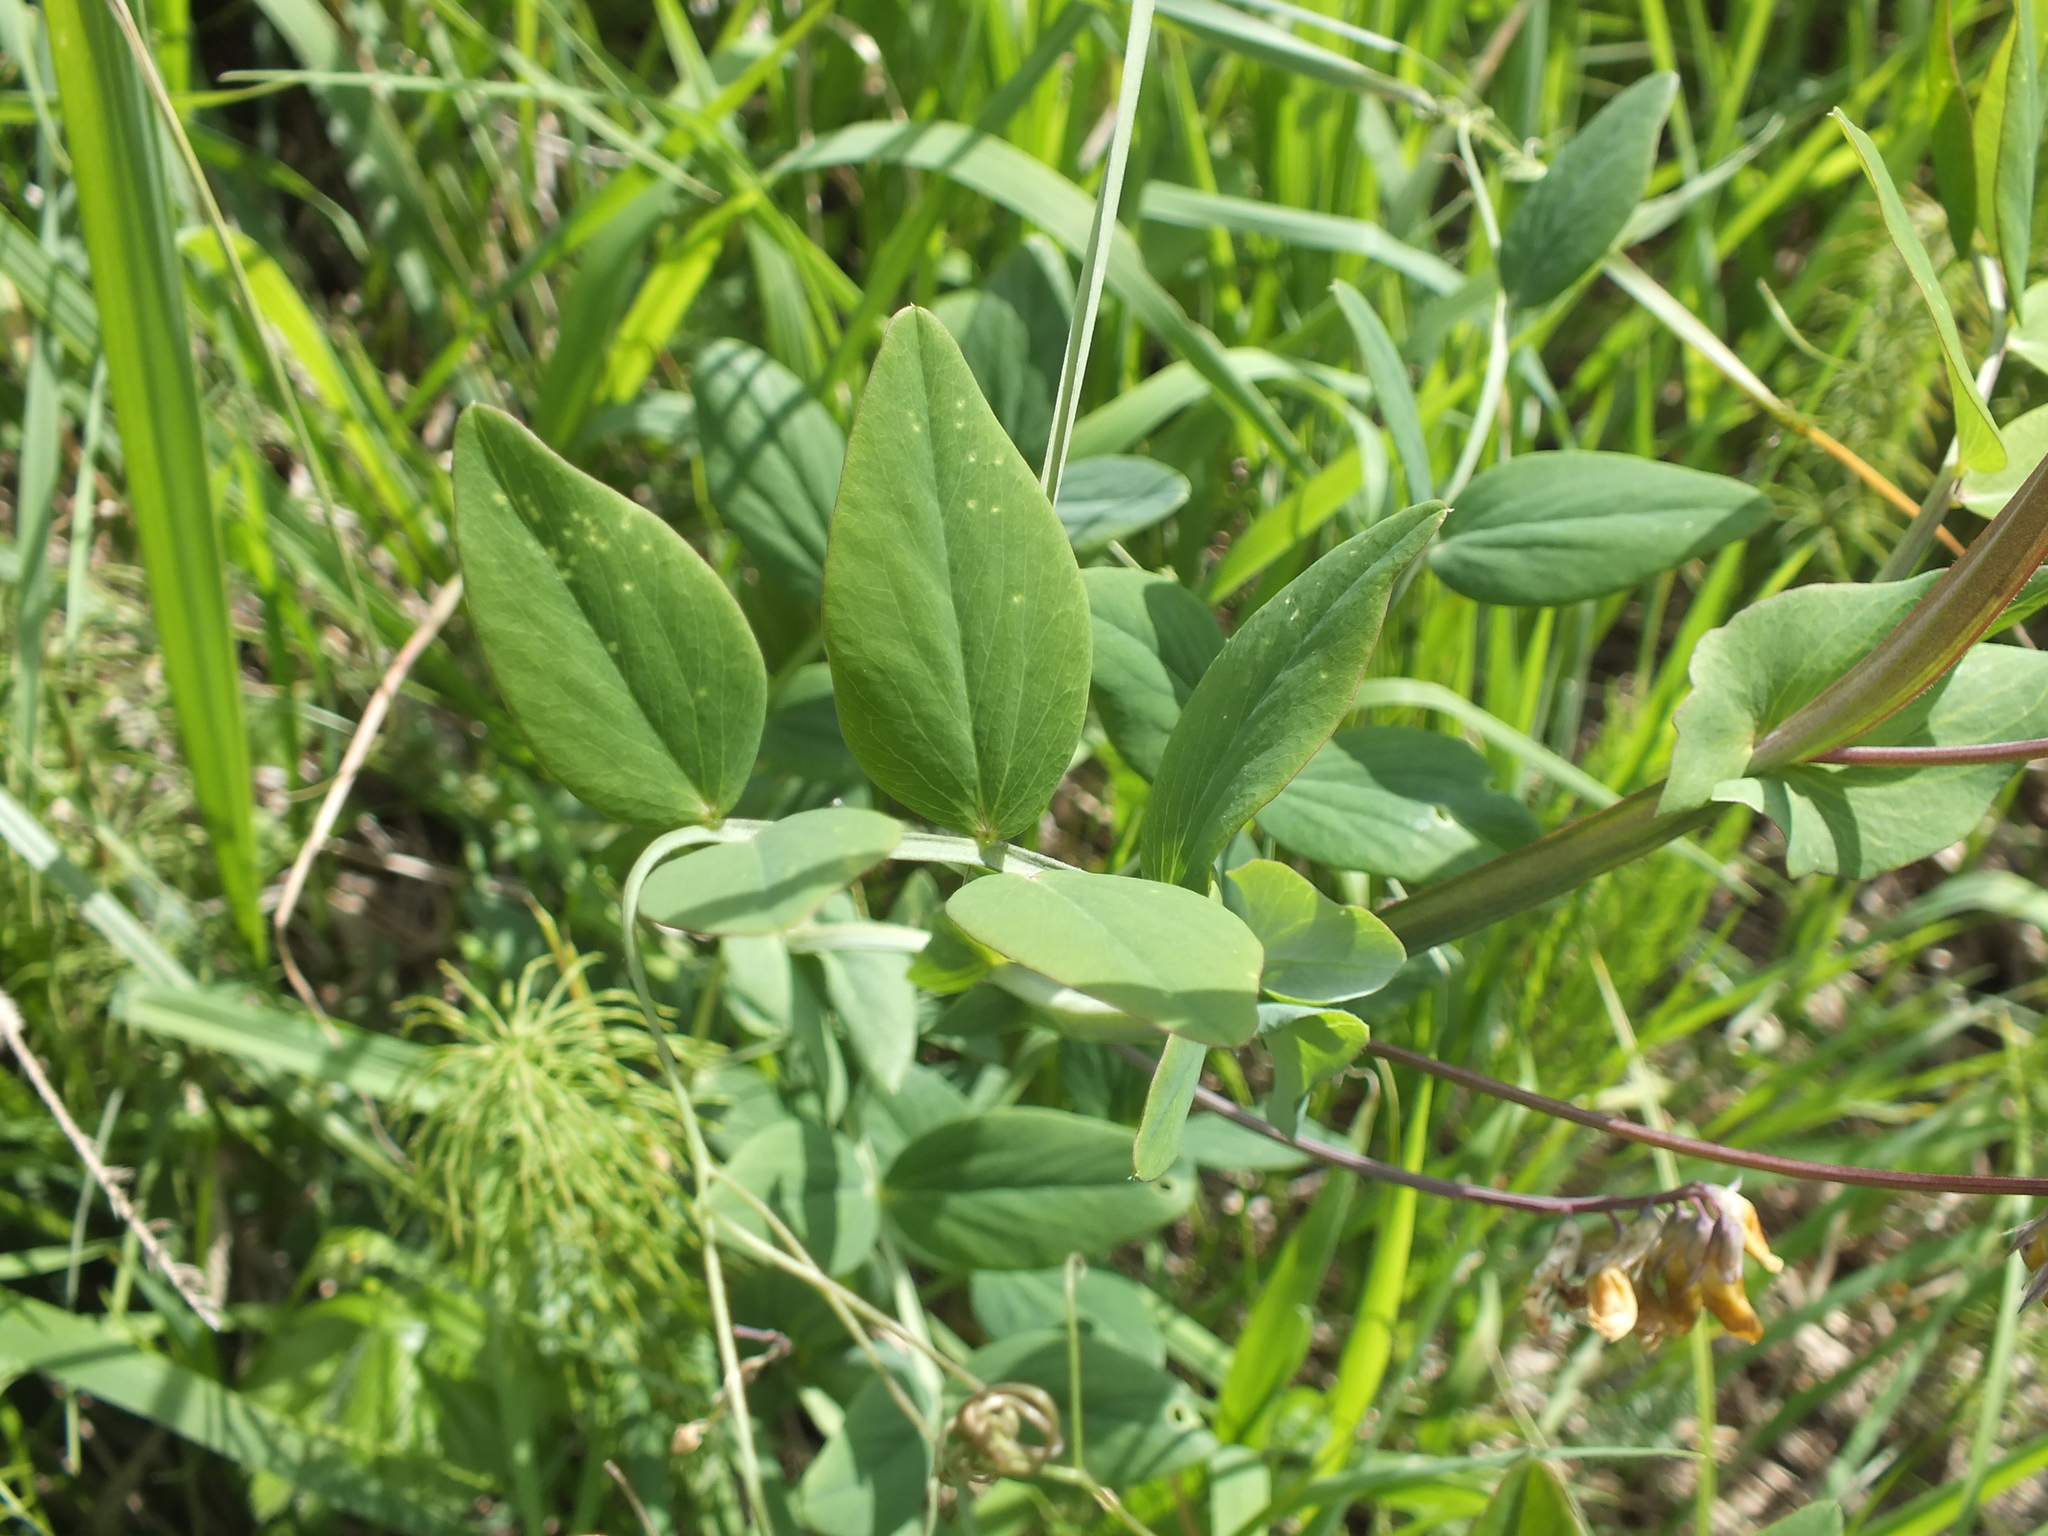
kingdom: Plantae
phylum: Tracheophyta
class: Magnoliopsida
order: Fabales
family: Fabaceae
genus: Lathyrus
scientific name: Lathyrus pisiformis
